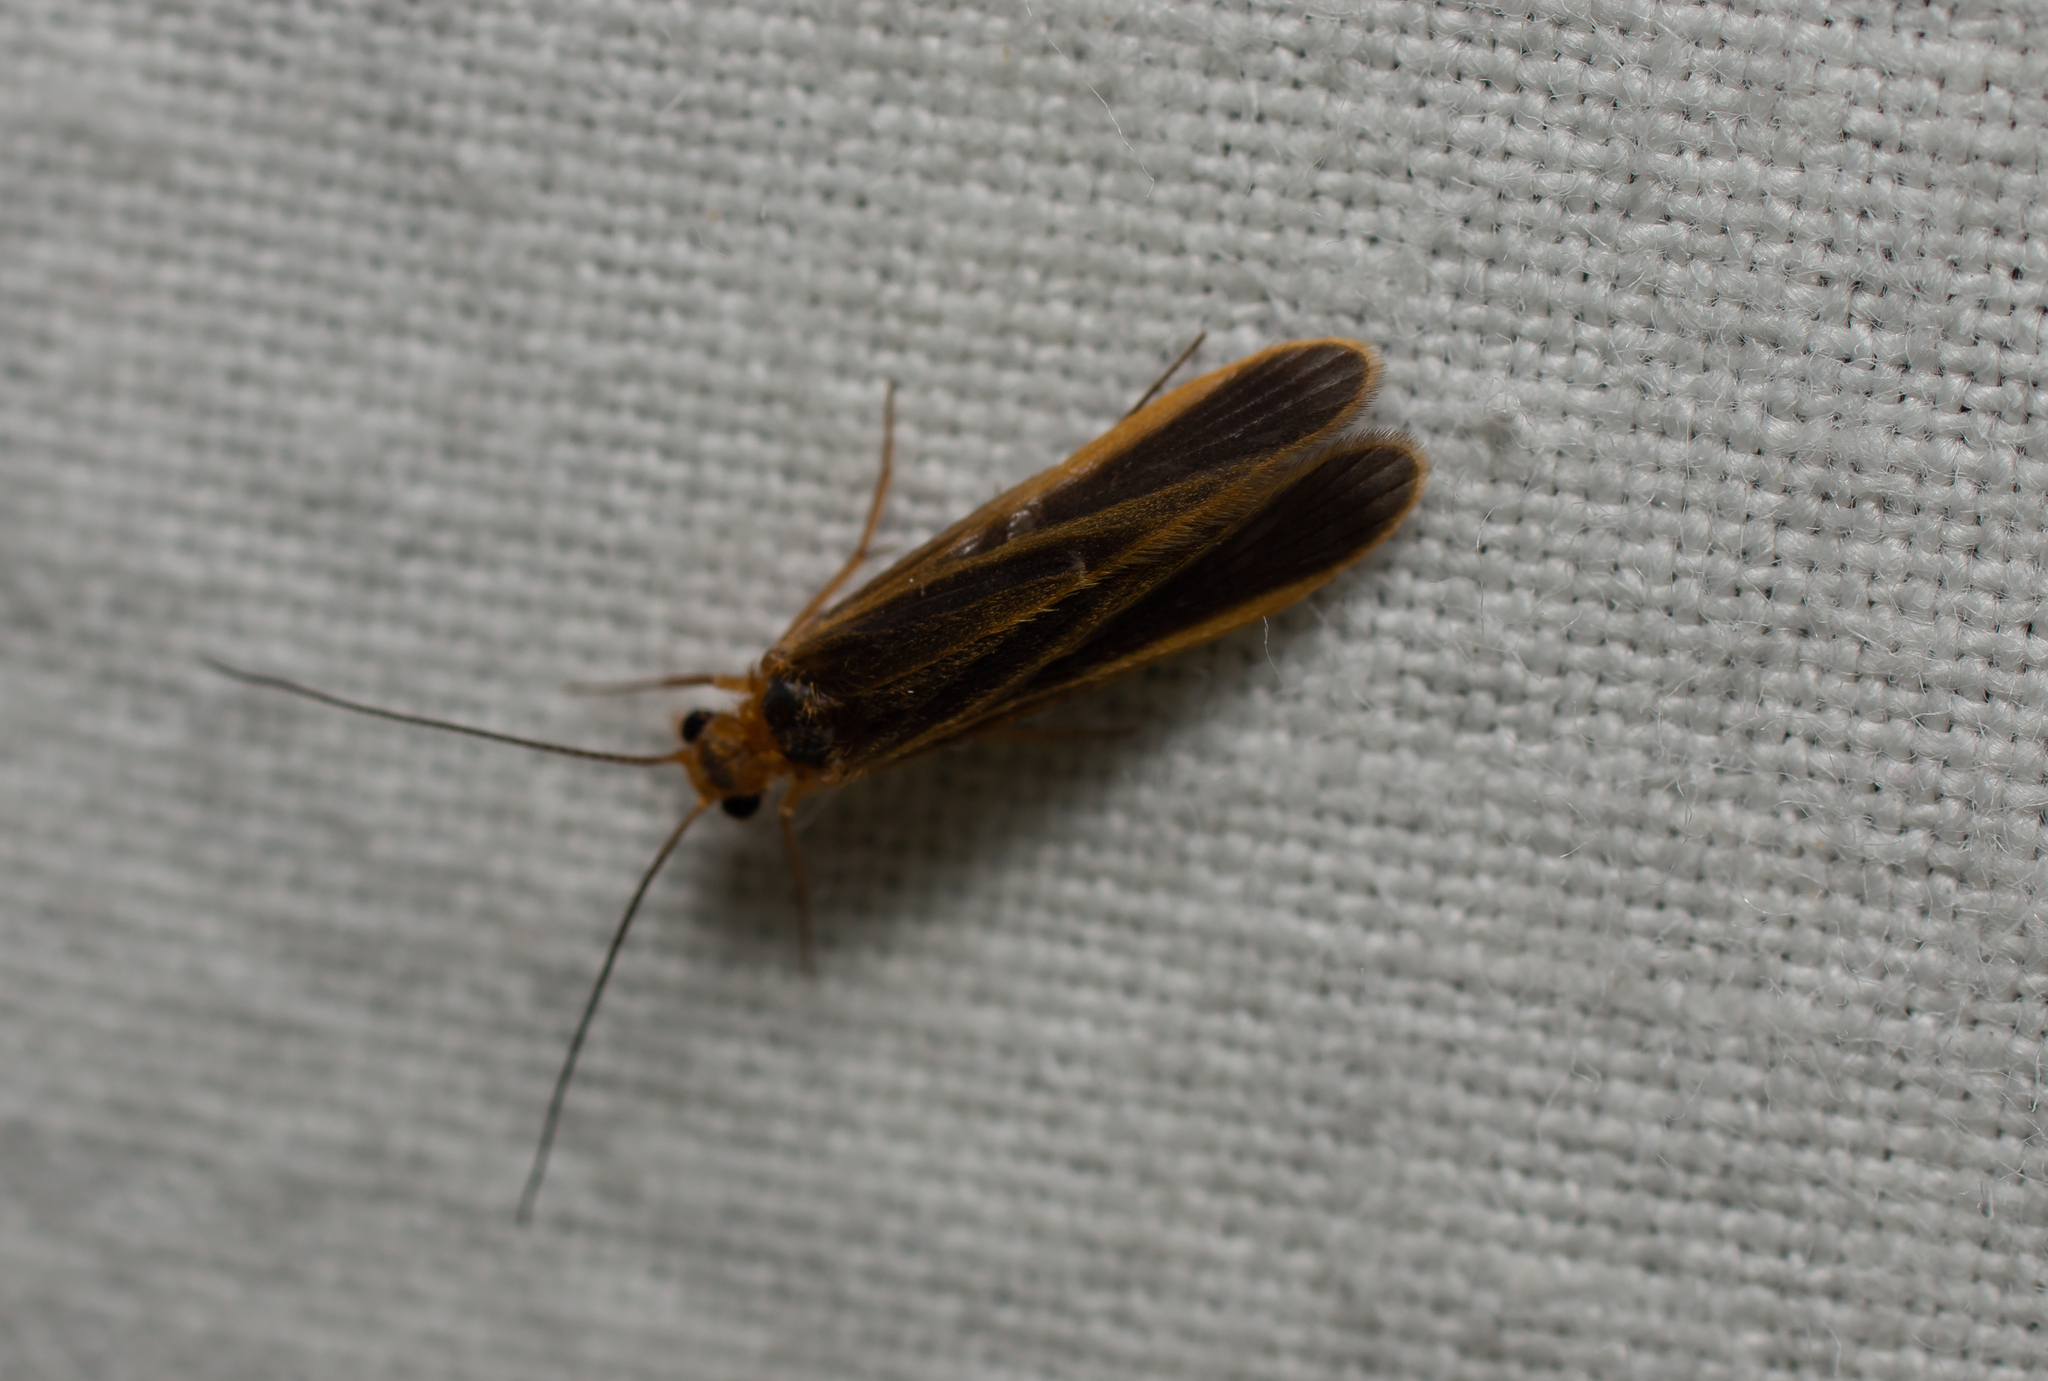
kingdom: Animalia
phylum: Arthropoda
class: Insecta
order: Trichoptera
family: Philopotamidae
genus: Chimarra
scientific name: Chimarra marginata
